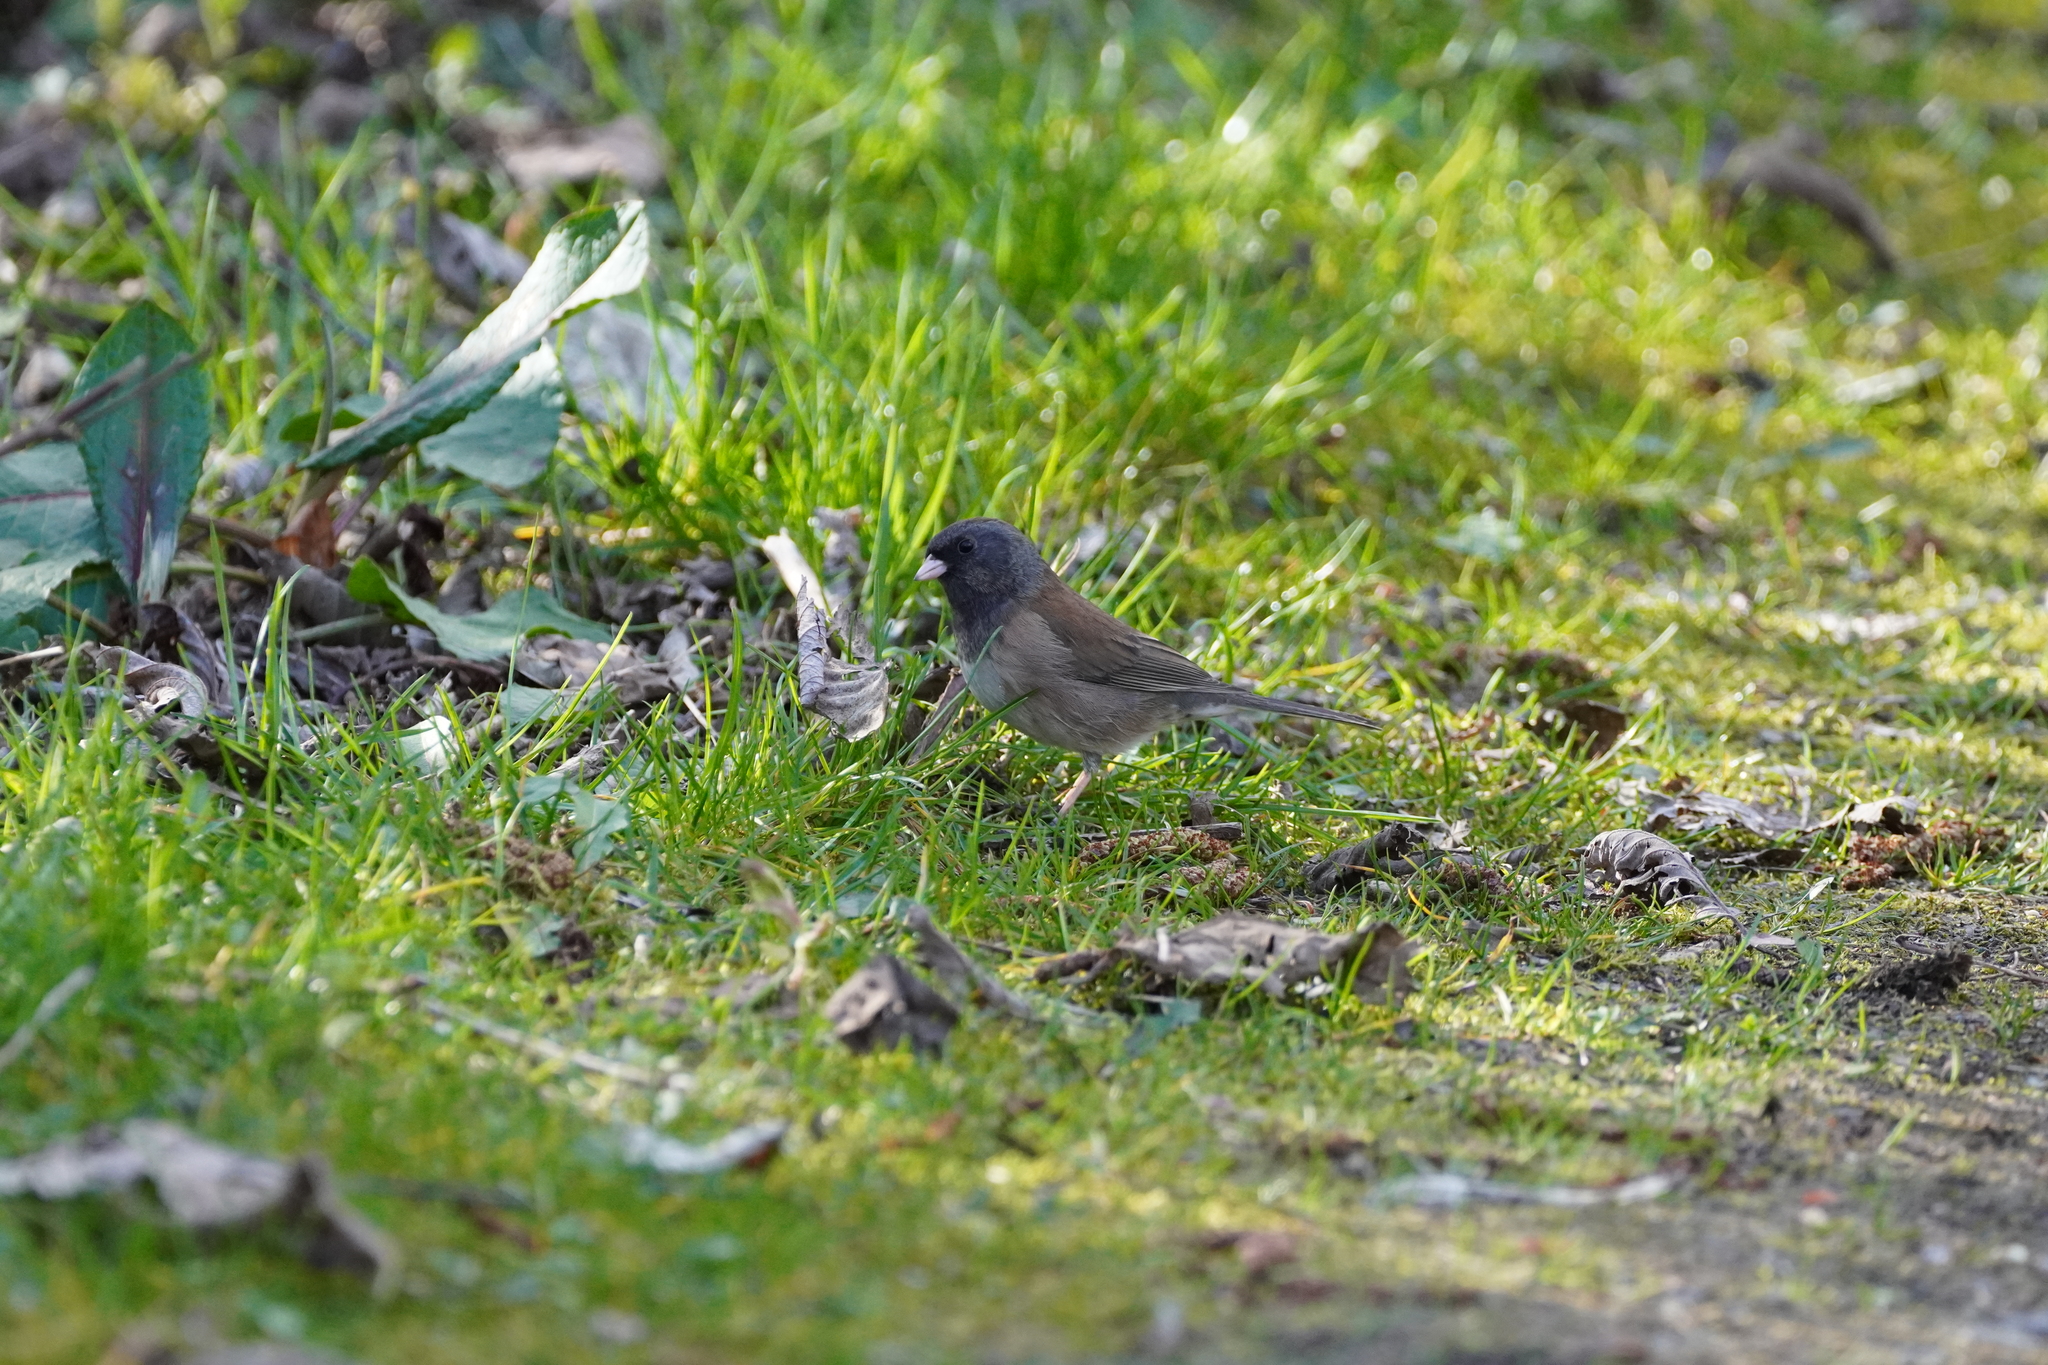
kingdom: Animalia
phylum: Chordata
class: Aves
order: Passeriformes
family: Passerellidae
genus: Junco
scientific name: Junco hyemalis
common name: Dark-eyed junco
